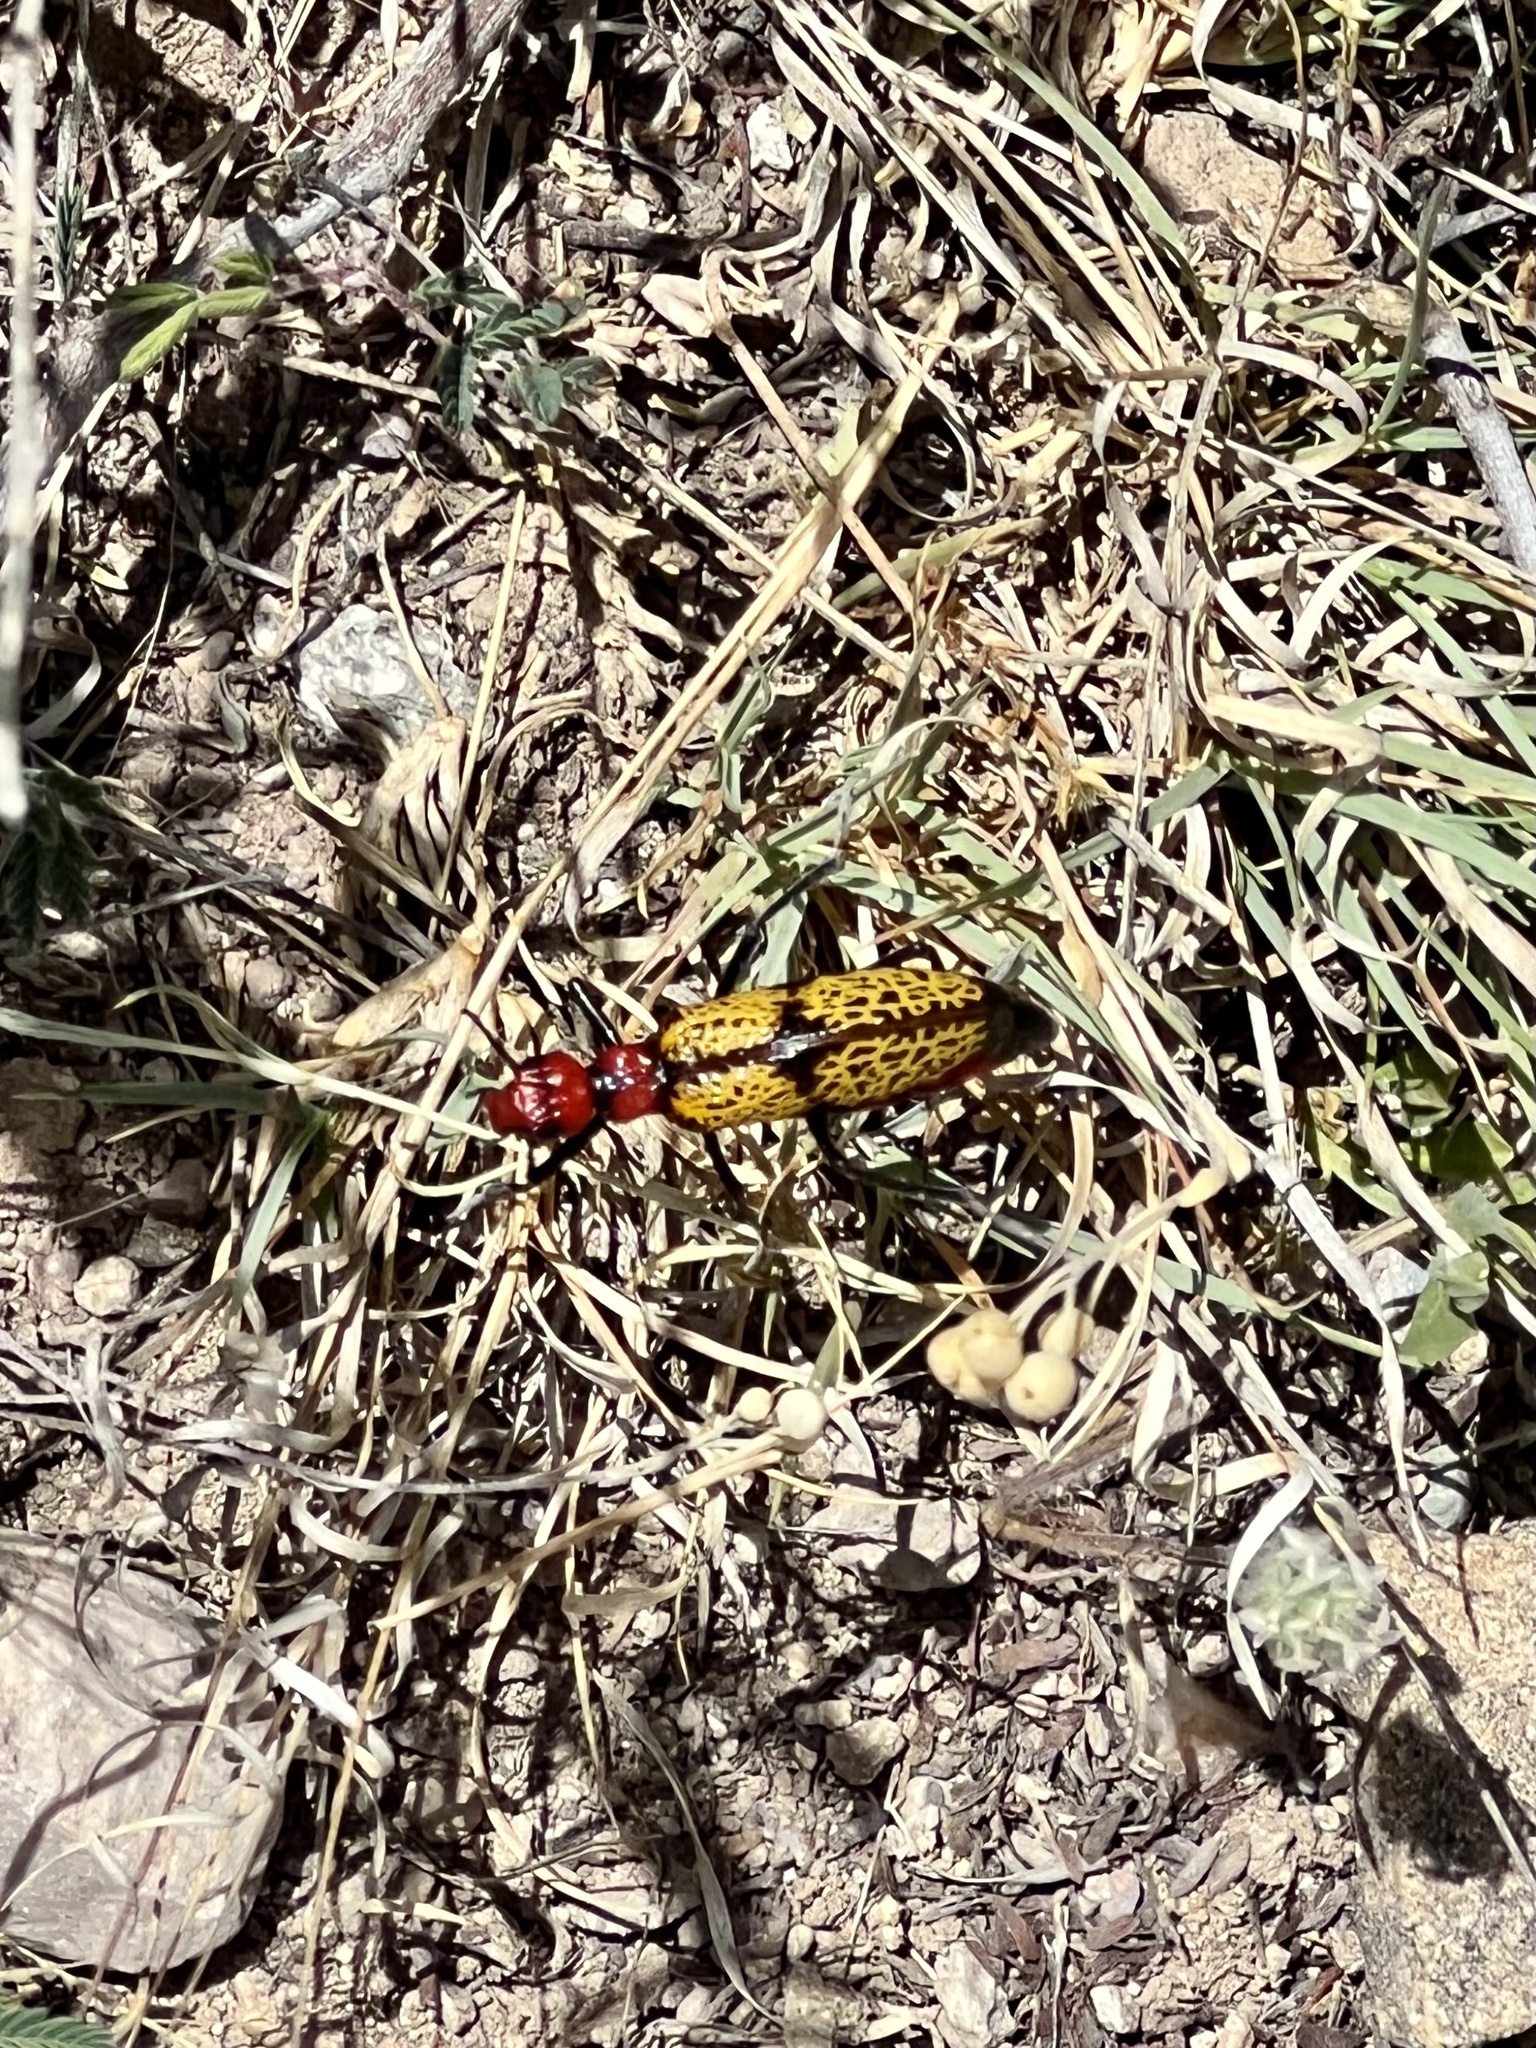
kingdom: Animalia
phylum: Arthropoda
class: Insecta
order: Coleoptera
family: Meloidae
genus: Tegrodera
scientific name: Tegrodera aloga
